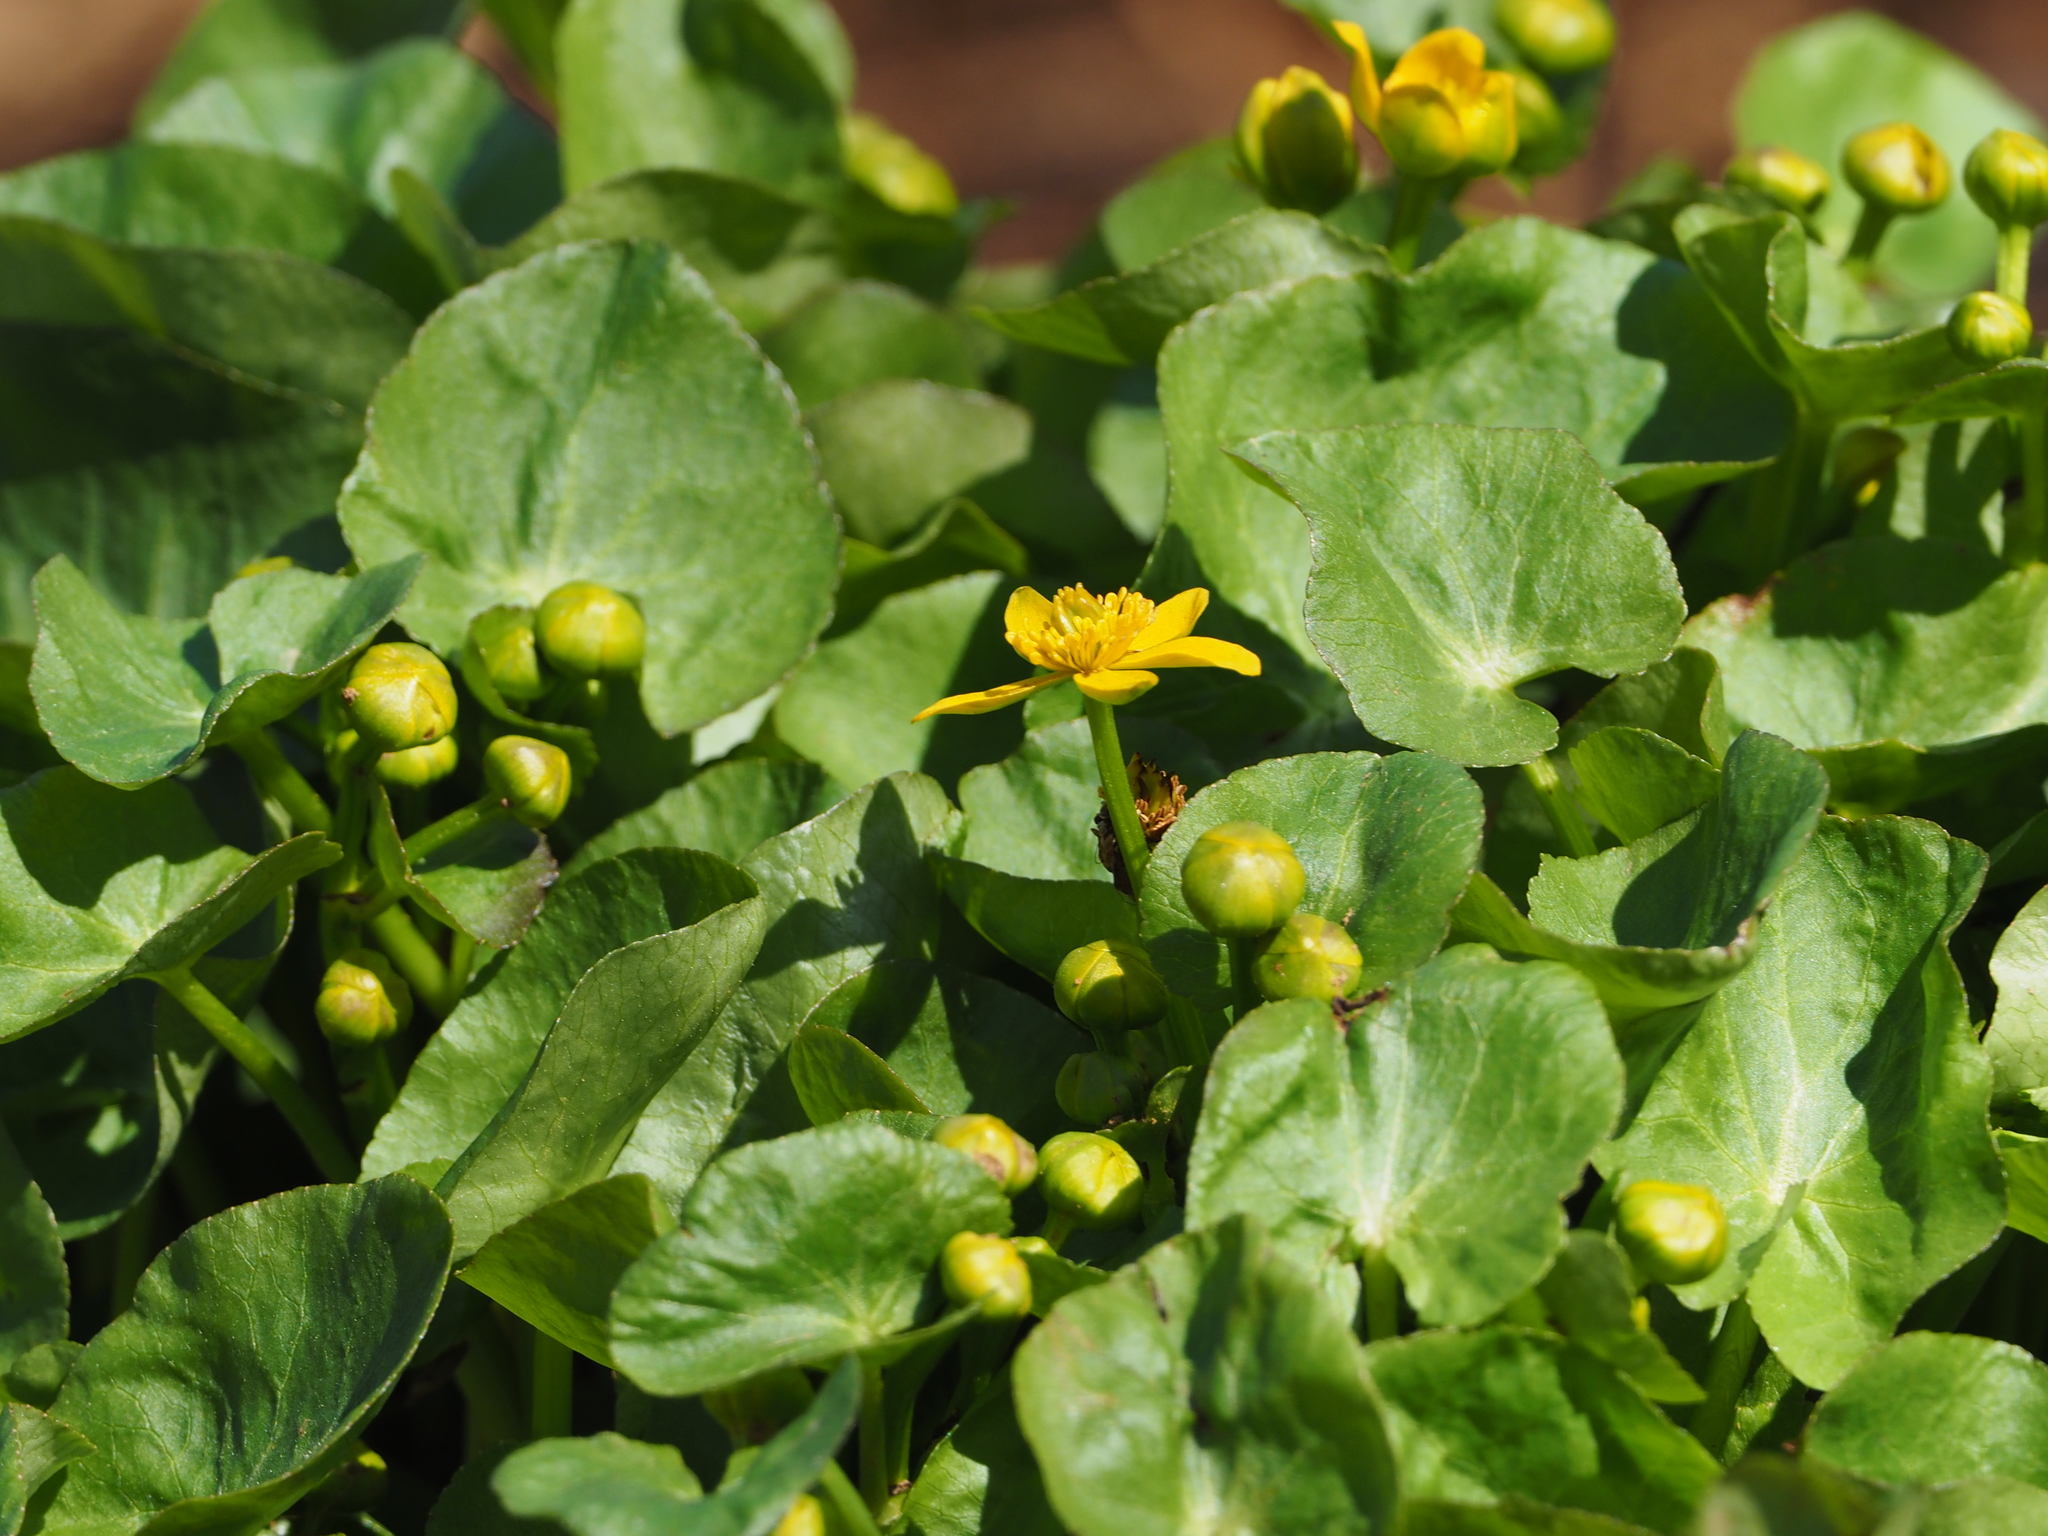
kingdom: Plantae
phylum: Tracheophyta
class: Magnoliopsida
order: Ranunculales
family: Ranunculaceae
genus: Caltha
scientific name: Caltha palustris
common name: Marsh marigold
